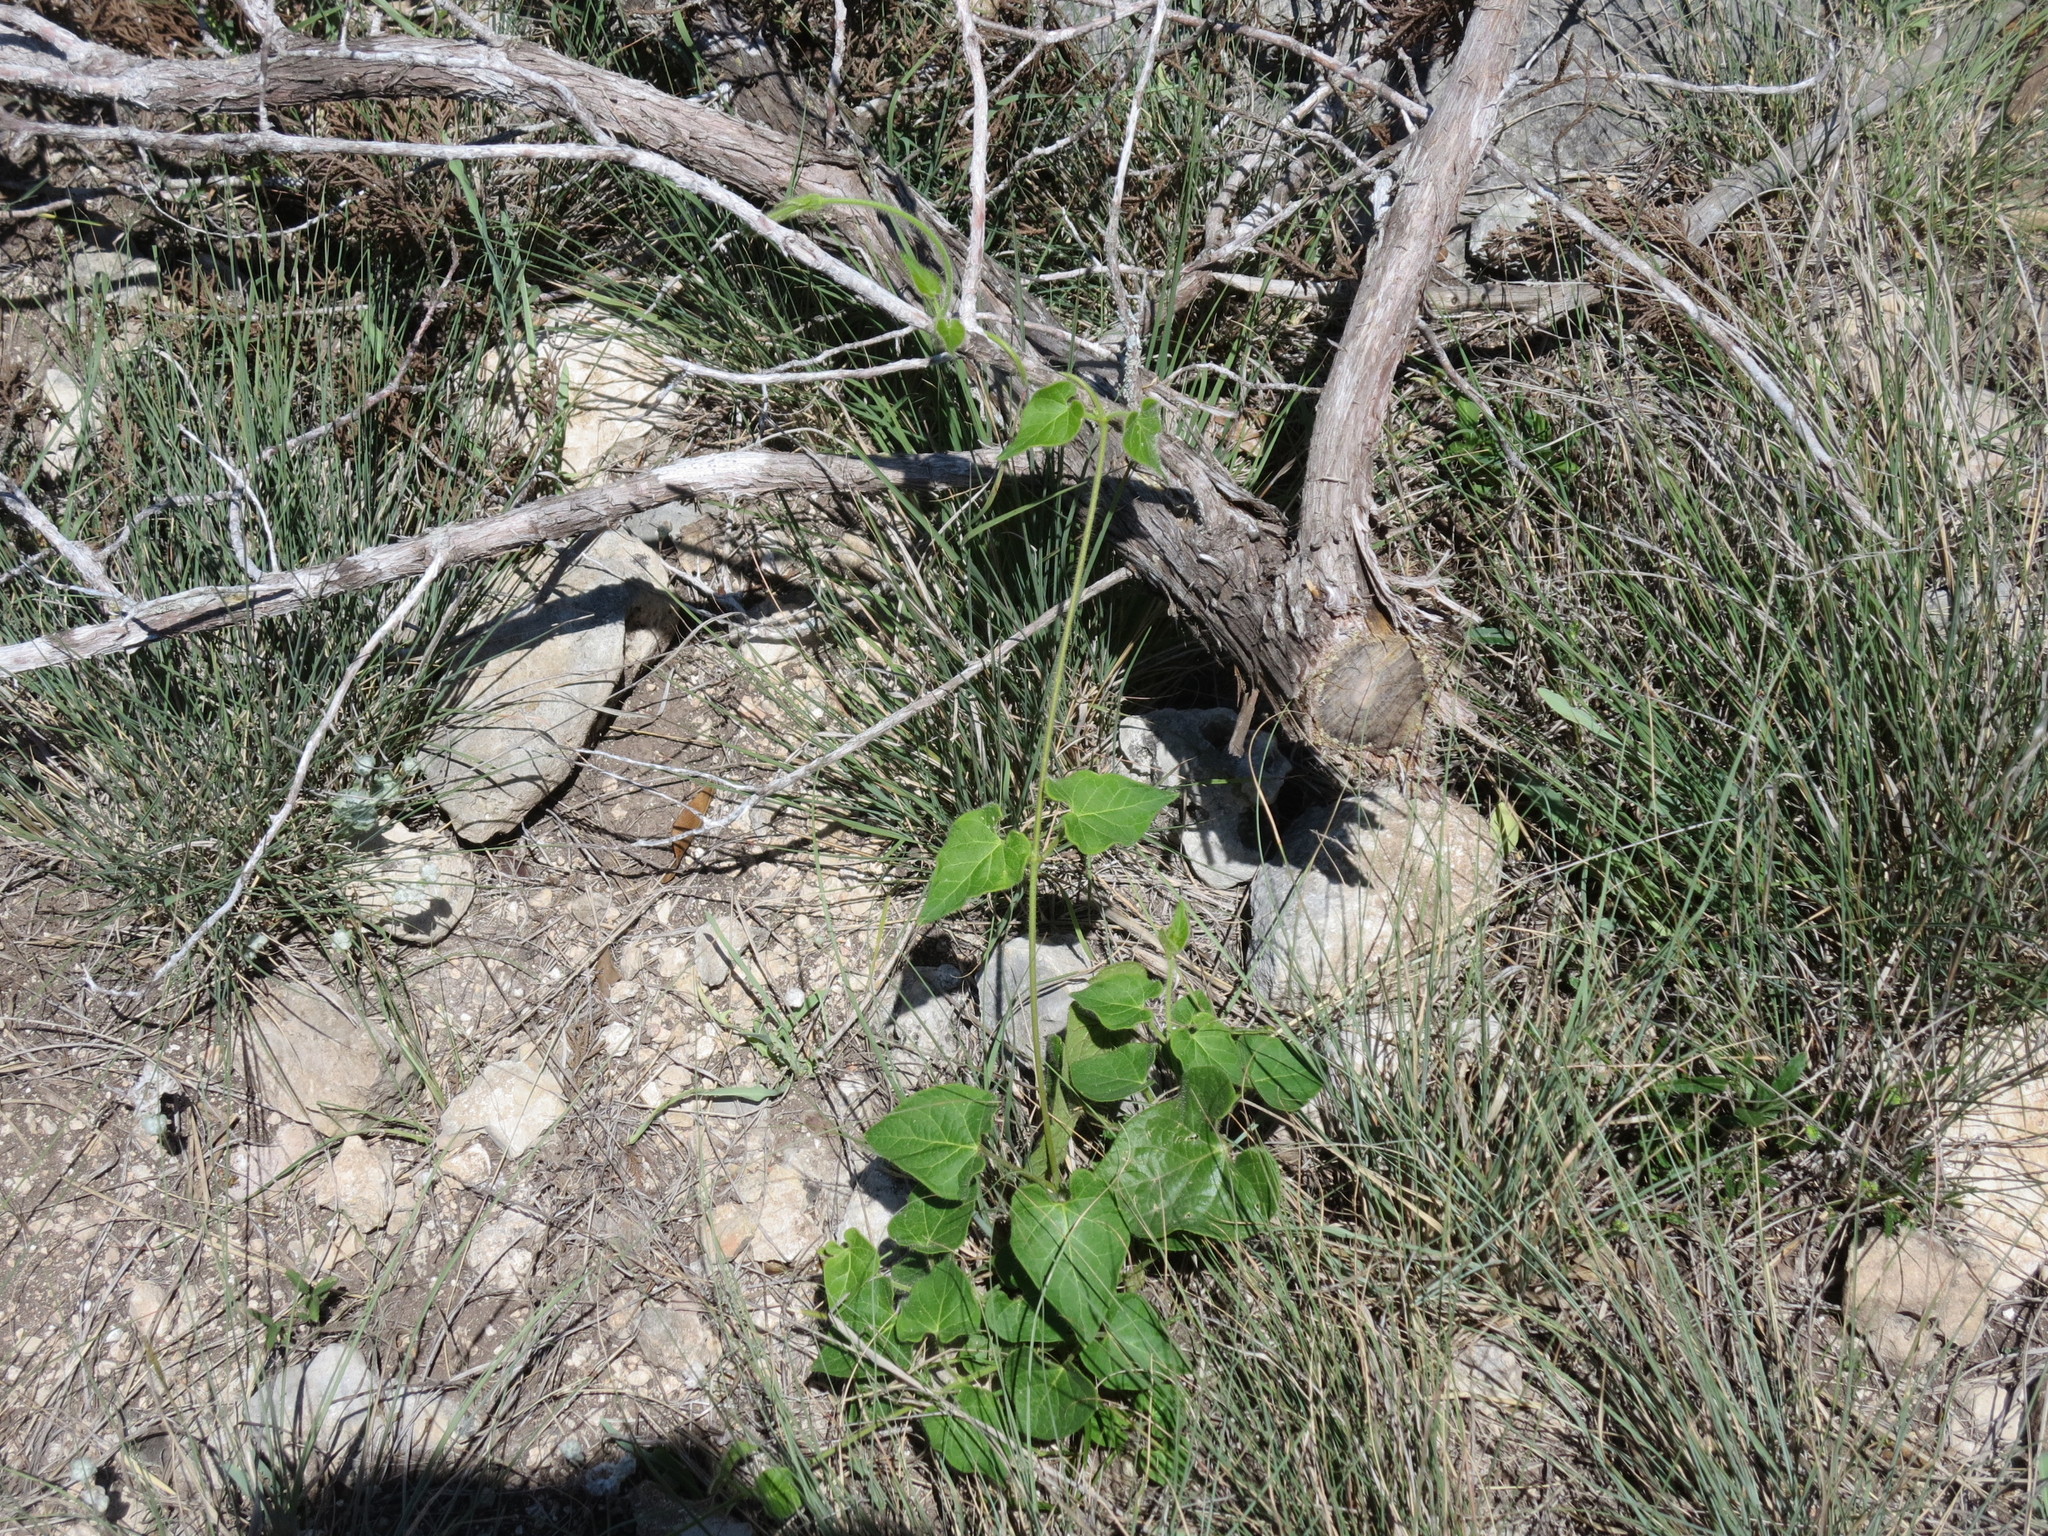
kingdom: Plantae
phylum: Tracheophyta
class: Magnoliopsida
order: Gentianales
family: Apocynaceae
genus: Dictyanthus
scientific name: Dictyanthus reticulatus
